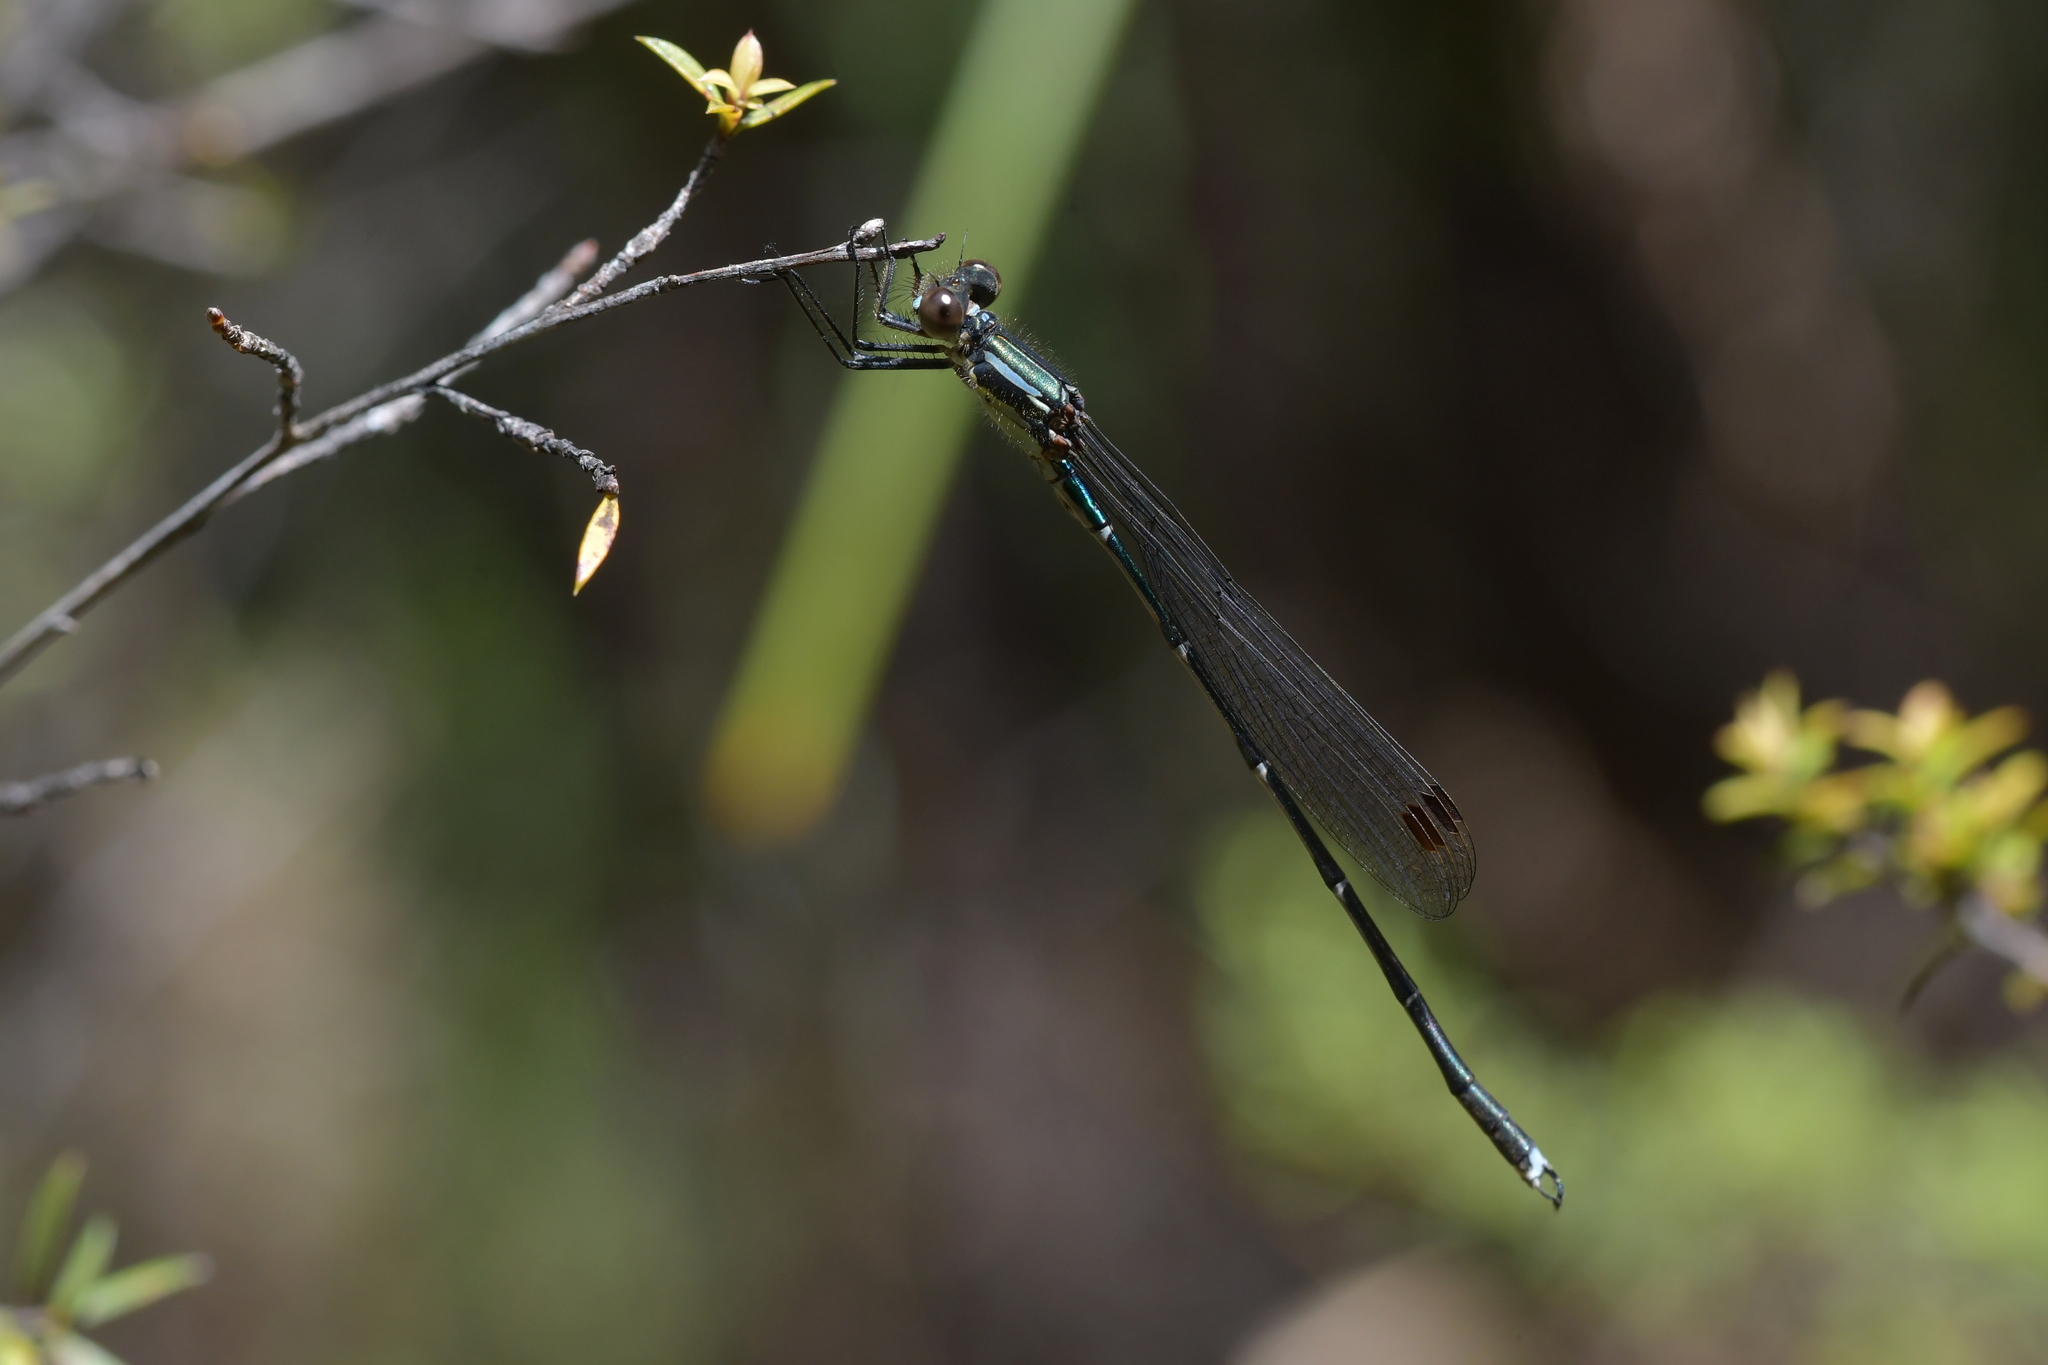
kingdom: Animalia
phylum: Arthropoda
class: Insecta
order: Odonata
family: Lestidae
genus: Austrolestes
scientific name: Austrolestes colensonis
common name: Blue damselfly
